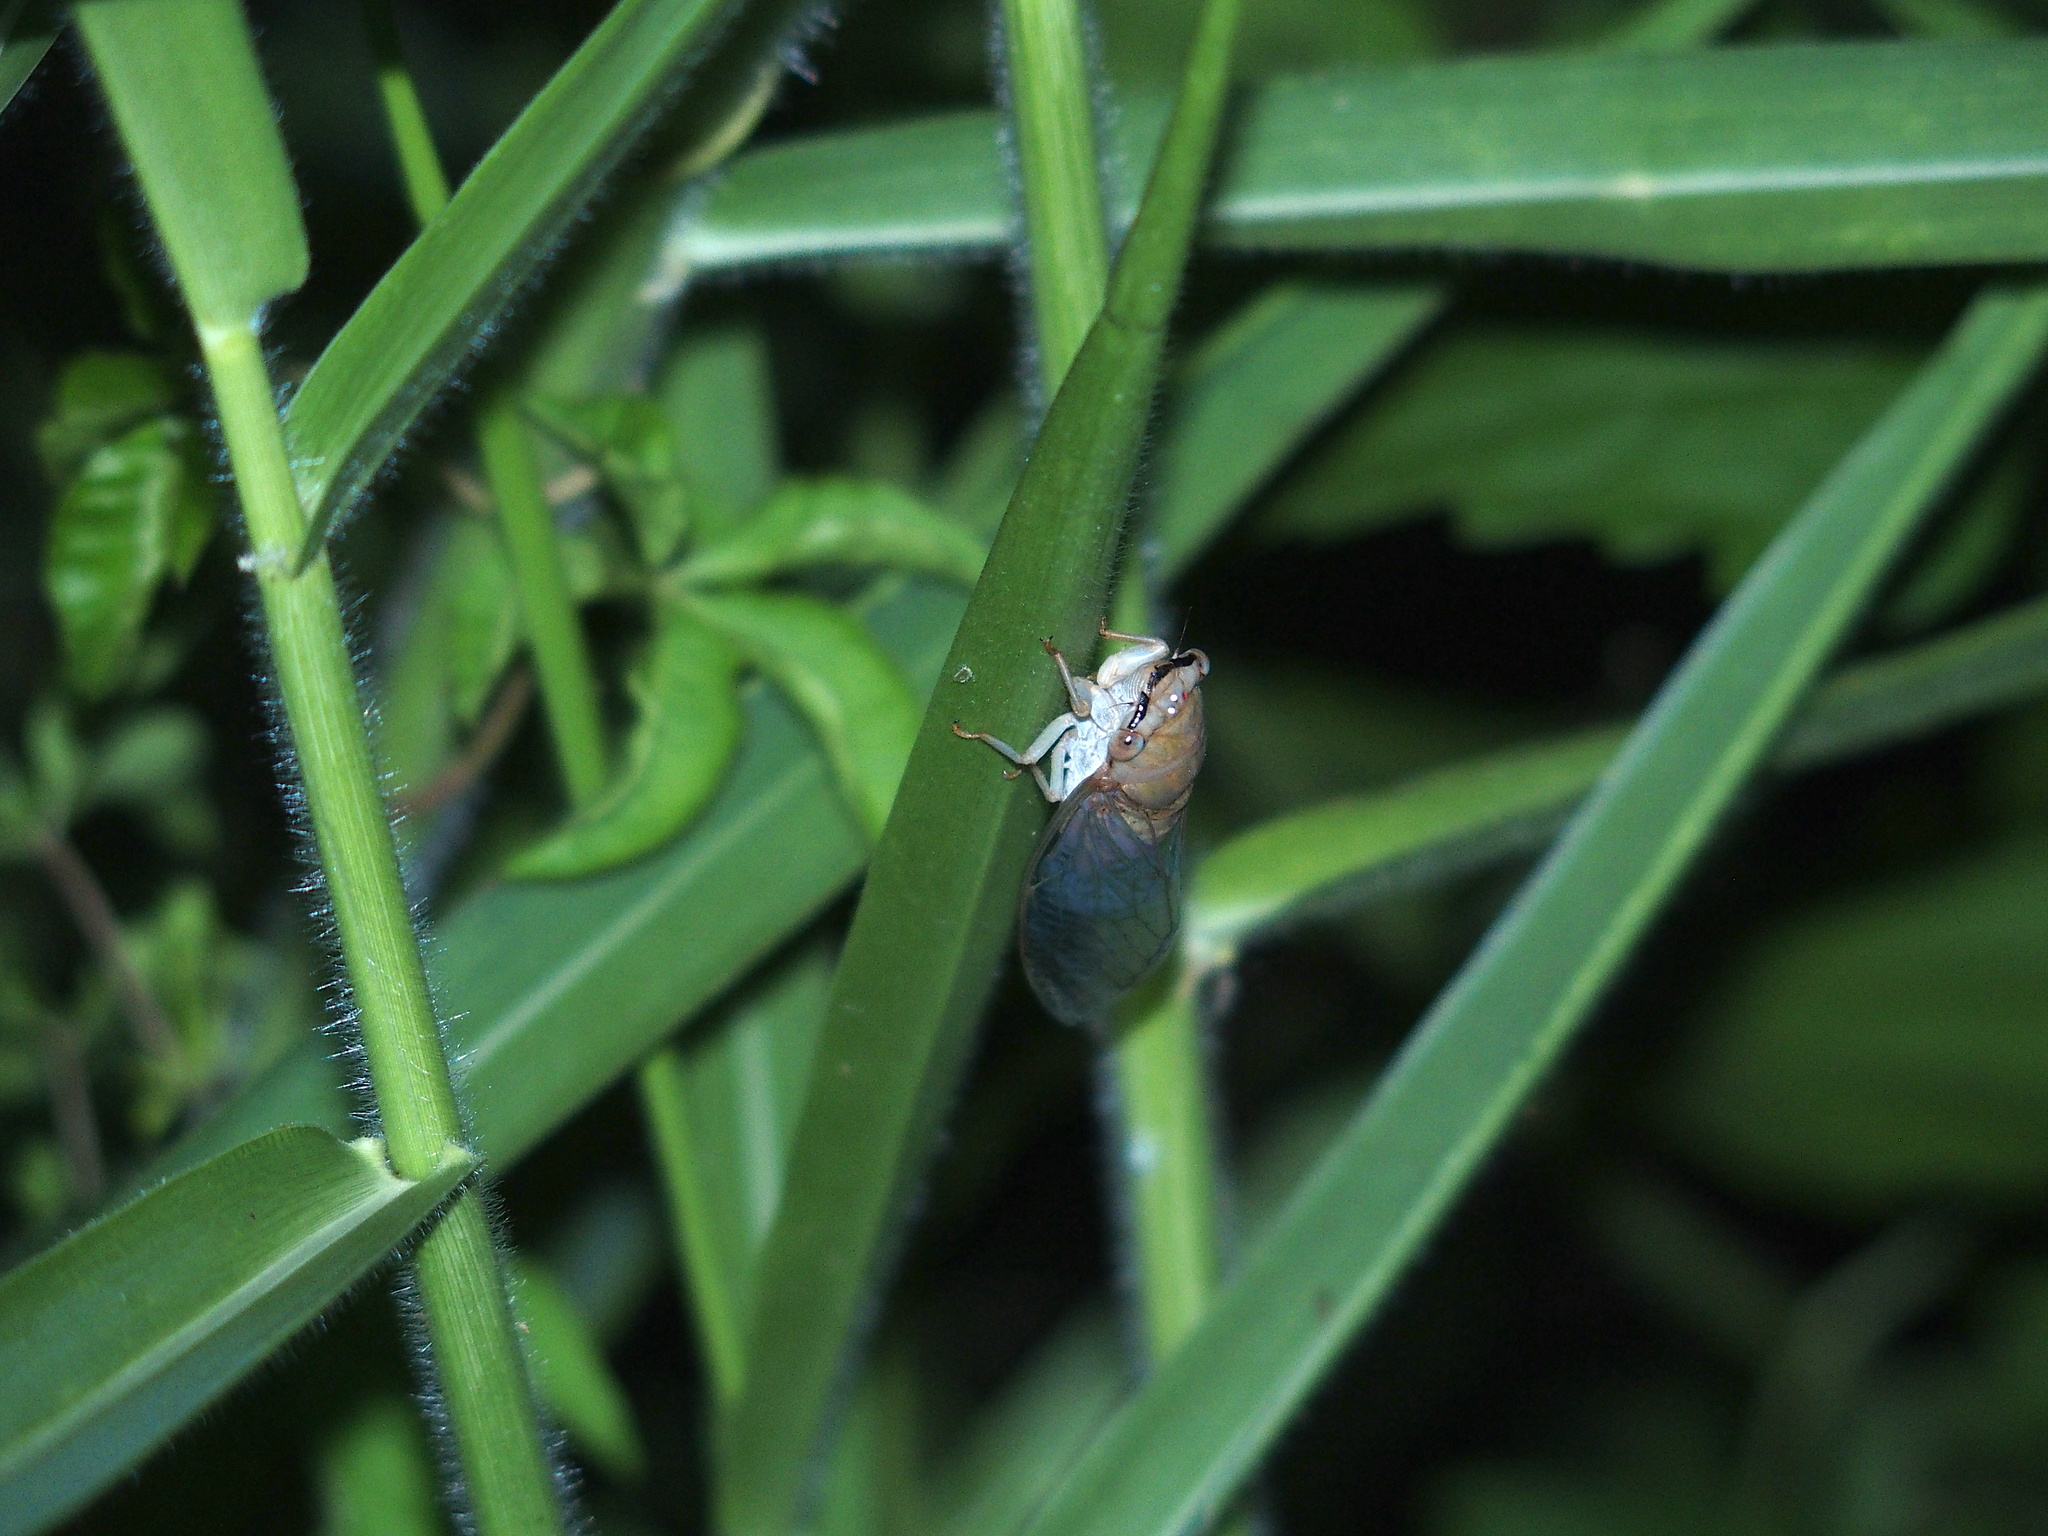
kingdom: Animalia
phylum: Arthropoda
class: Insecta
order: Hemiptera
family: Cicadidae
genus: Chremistica
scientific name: Chremistica ochracea
